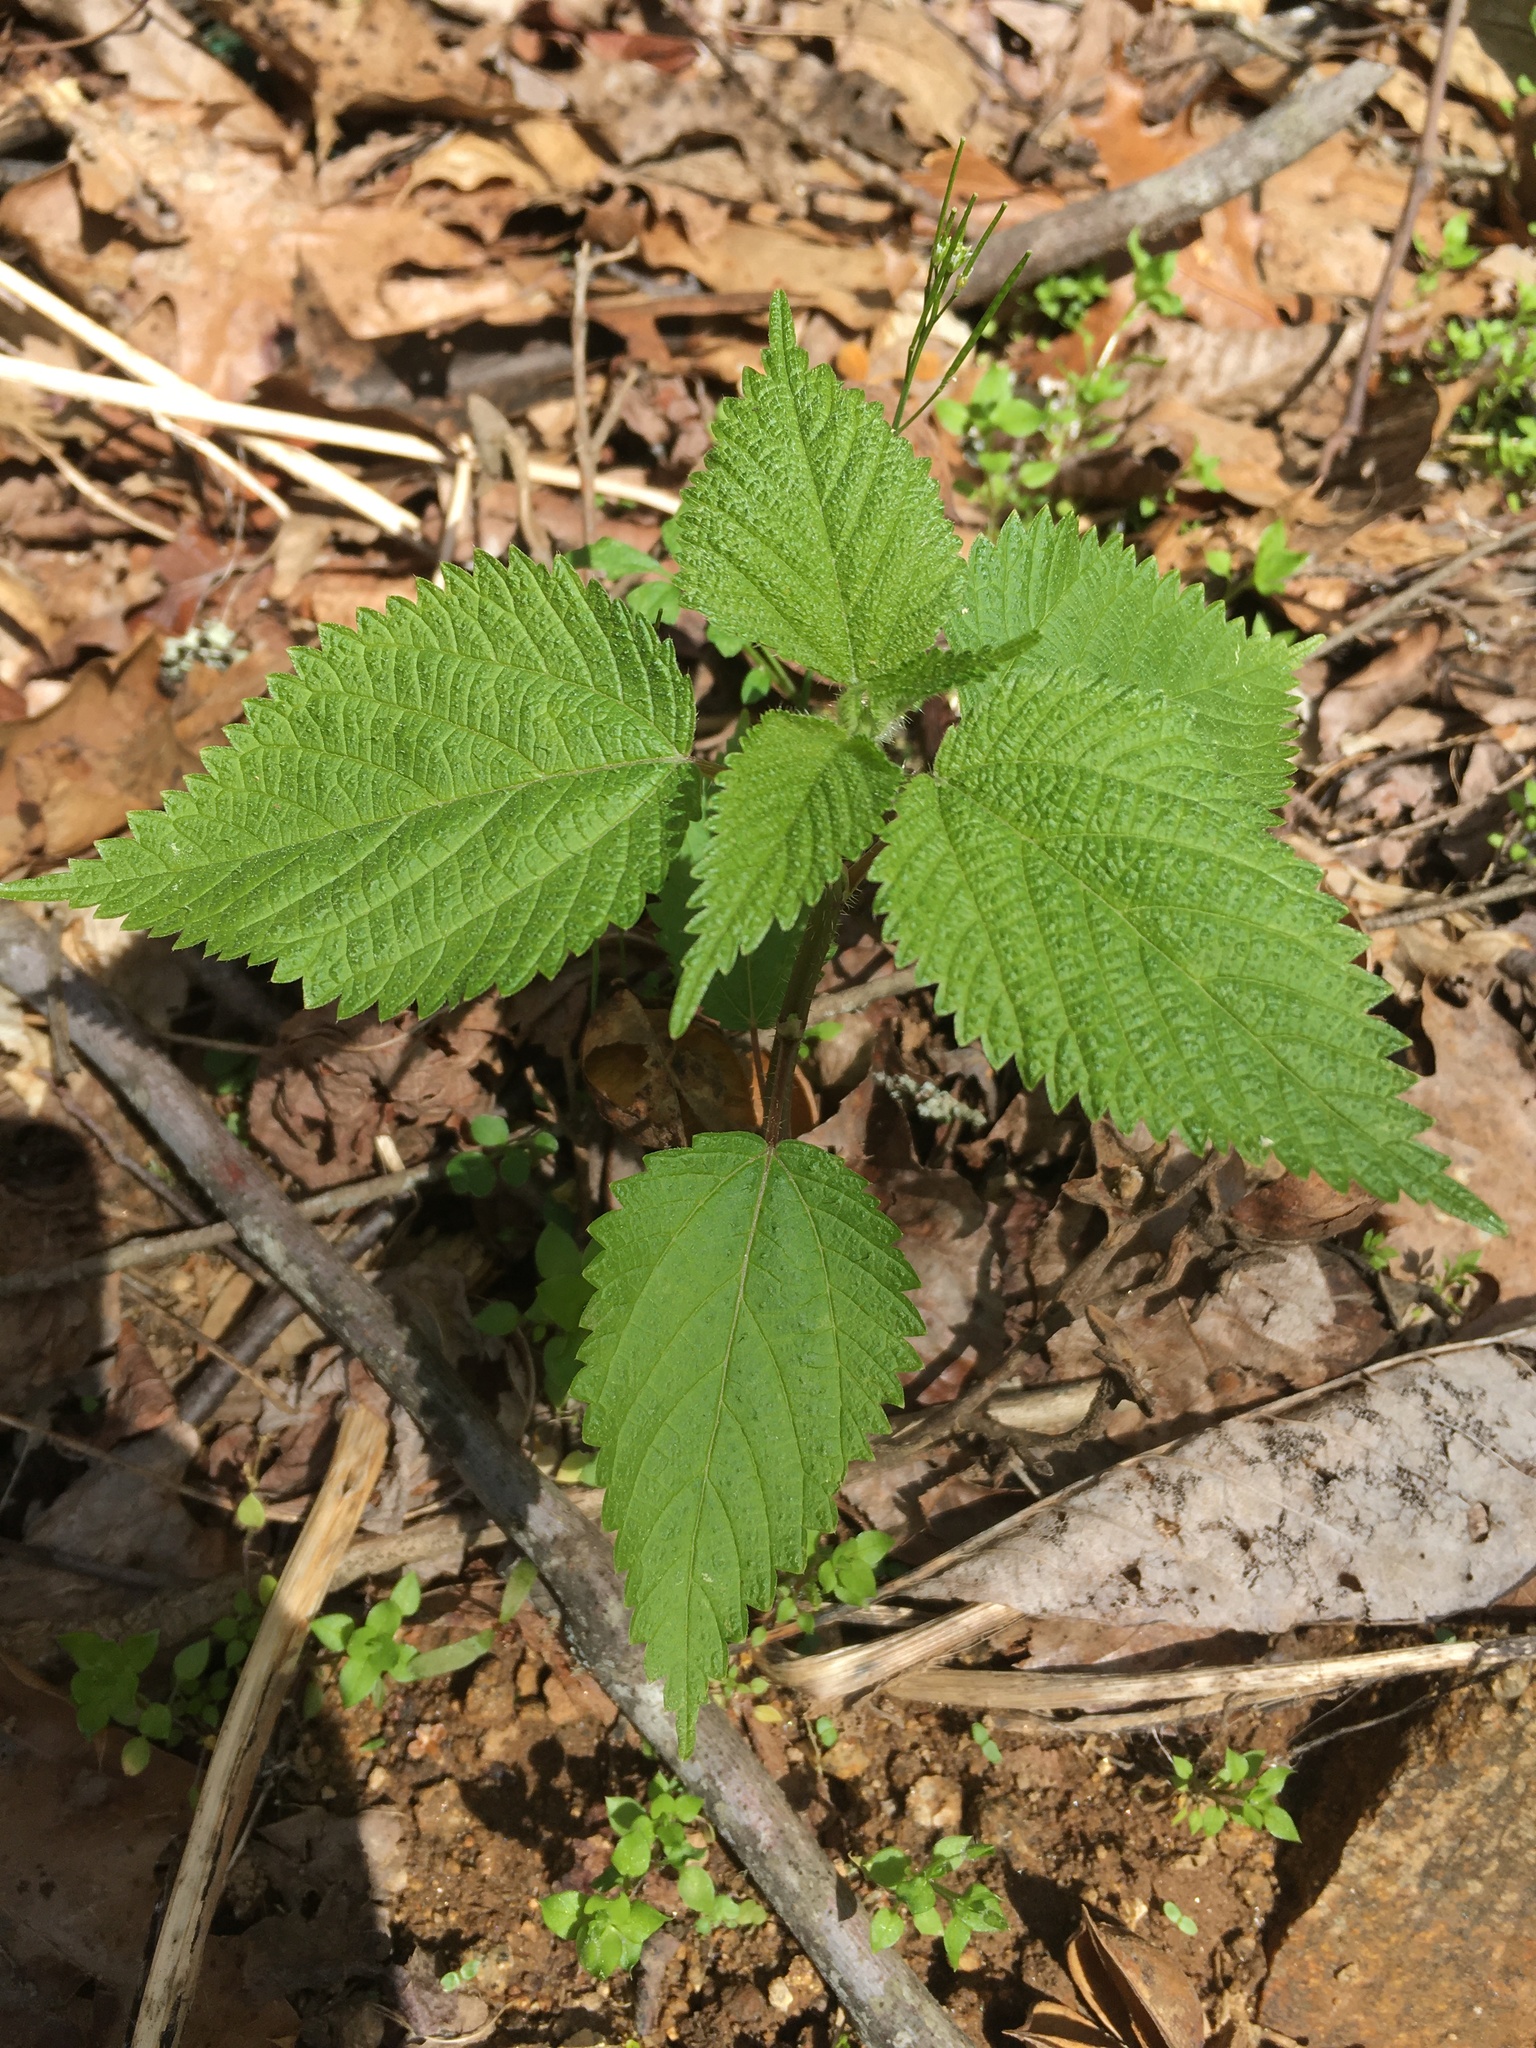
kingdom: Plantae
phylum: Tracheophyta
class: Magnoliopsida
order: Rosales
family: Urticaceae
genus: Laportea
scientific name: Laportea canadensis
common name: Canada nettle
